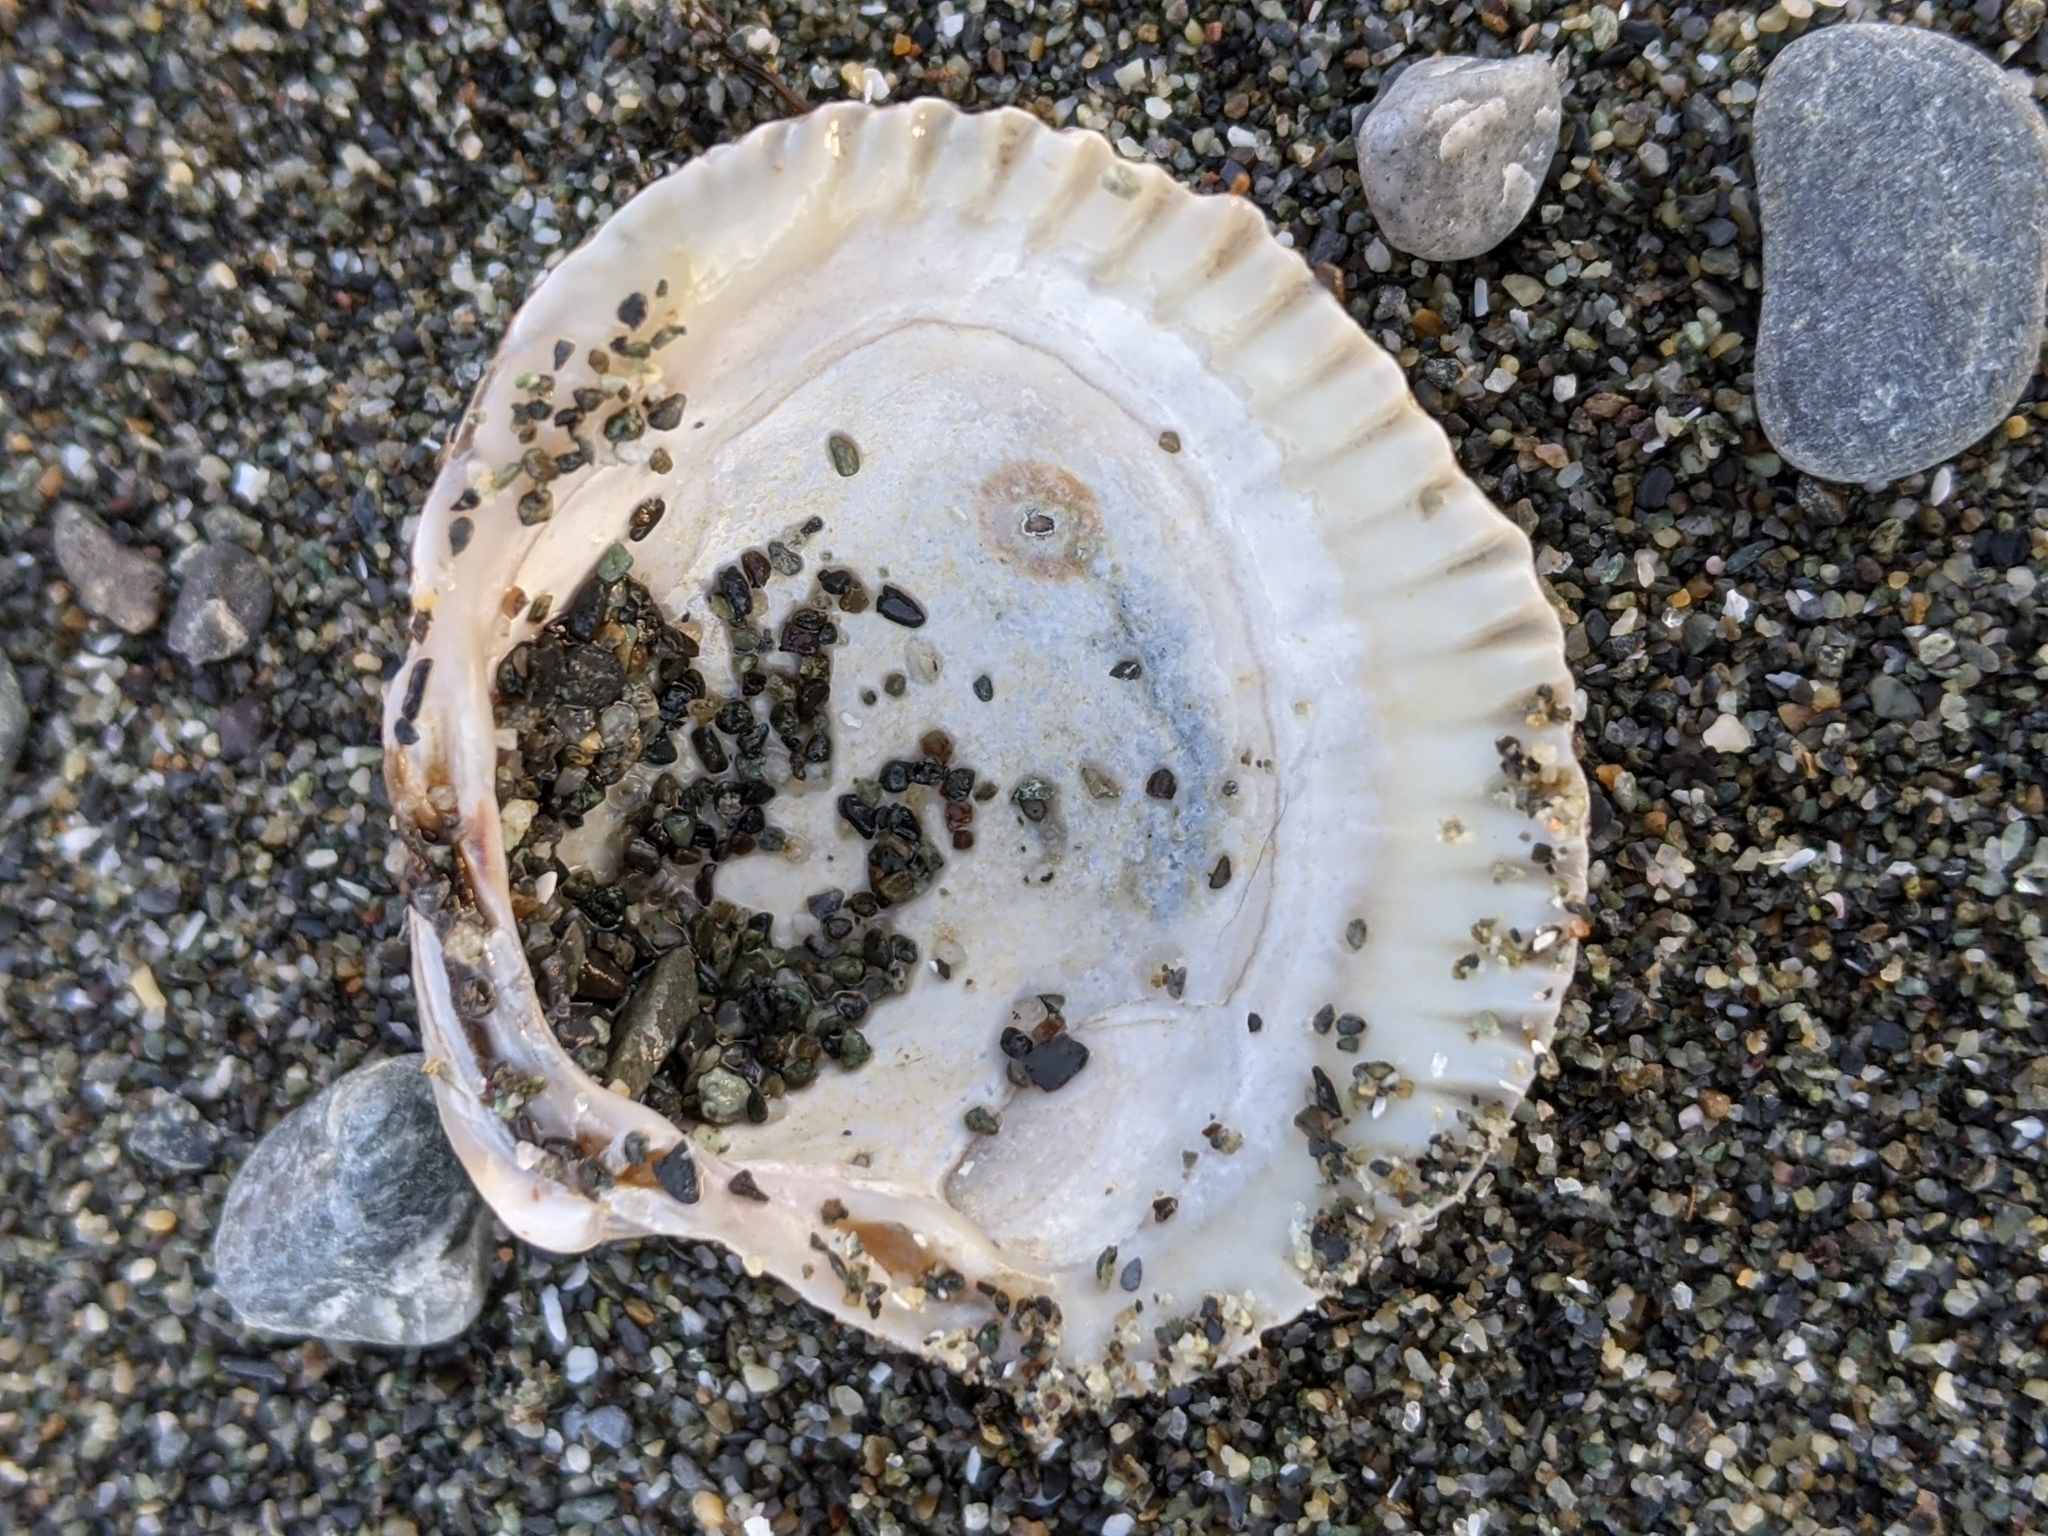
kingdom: Animalia
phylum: Mollusca
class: Bivalvia
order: Cardiida
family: Cardiidae
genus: Clinocardium
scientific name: Clinocardium nuttallii
